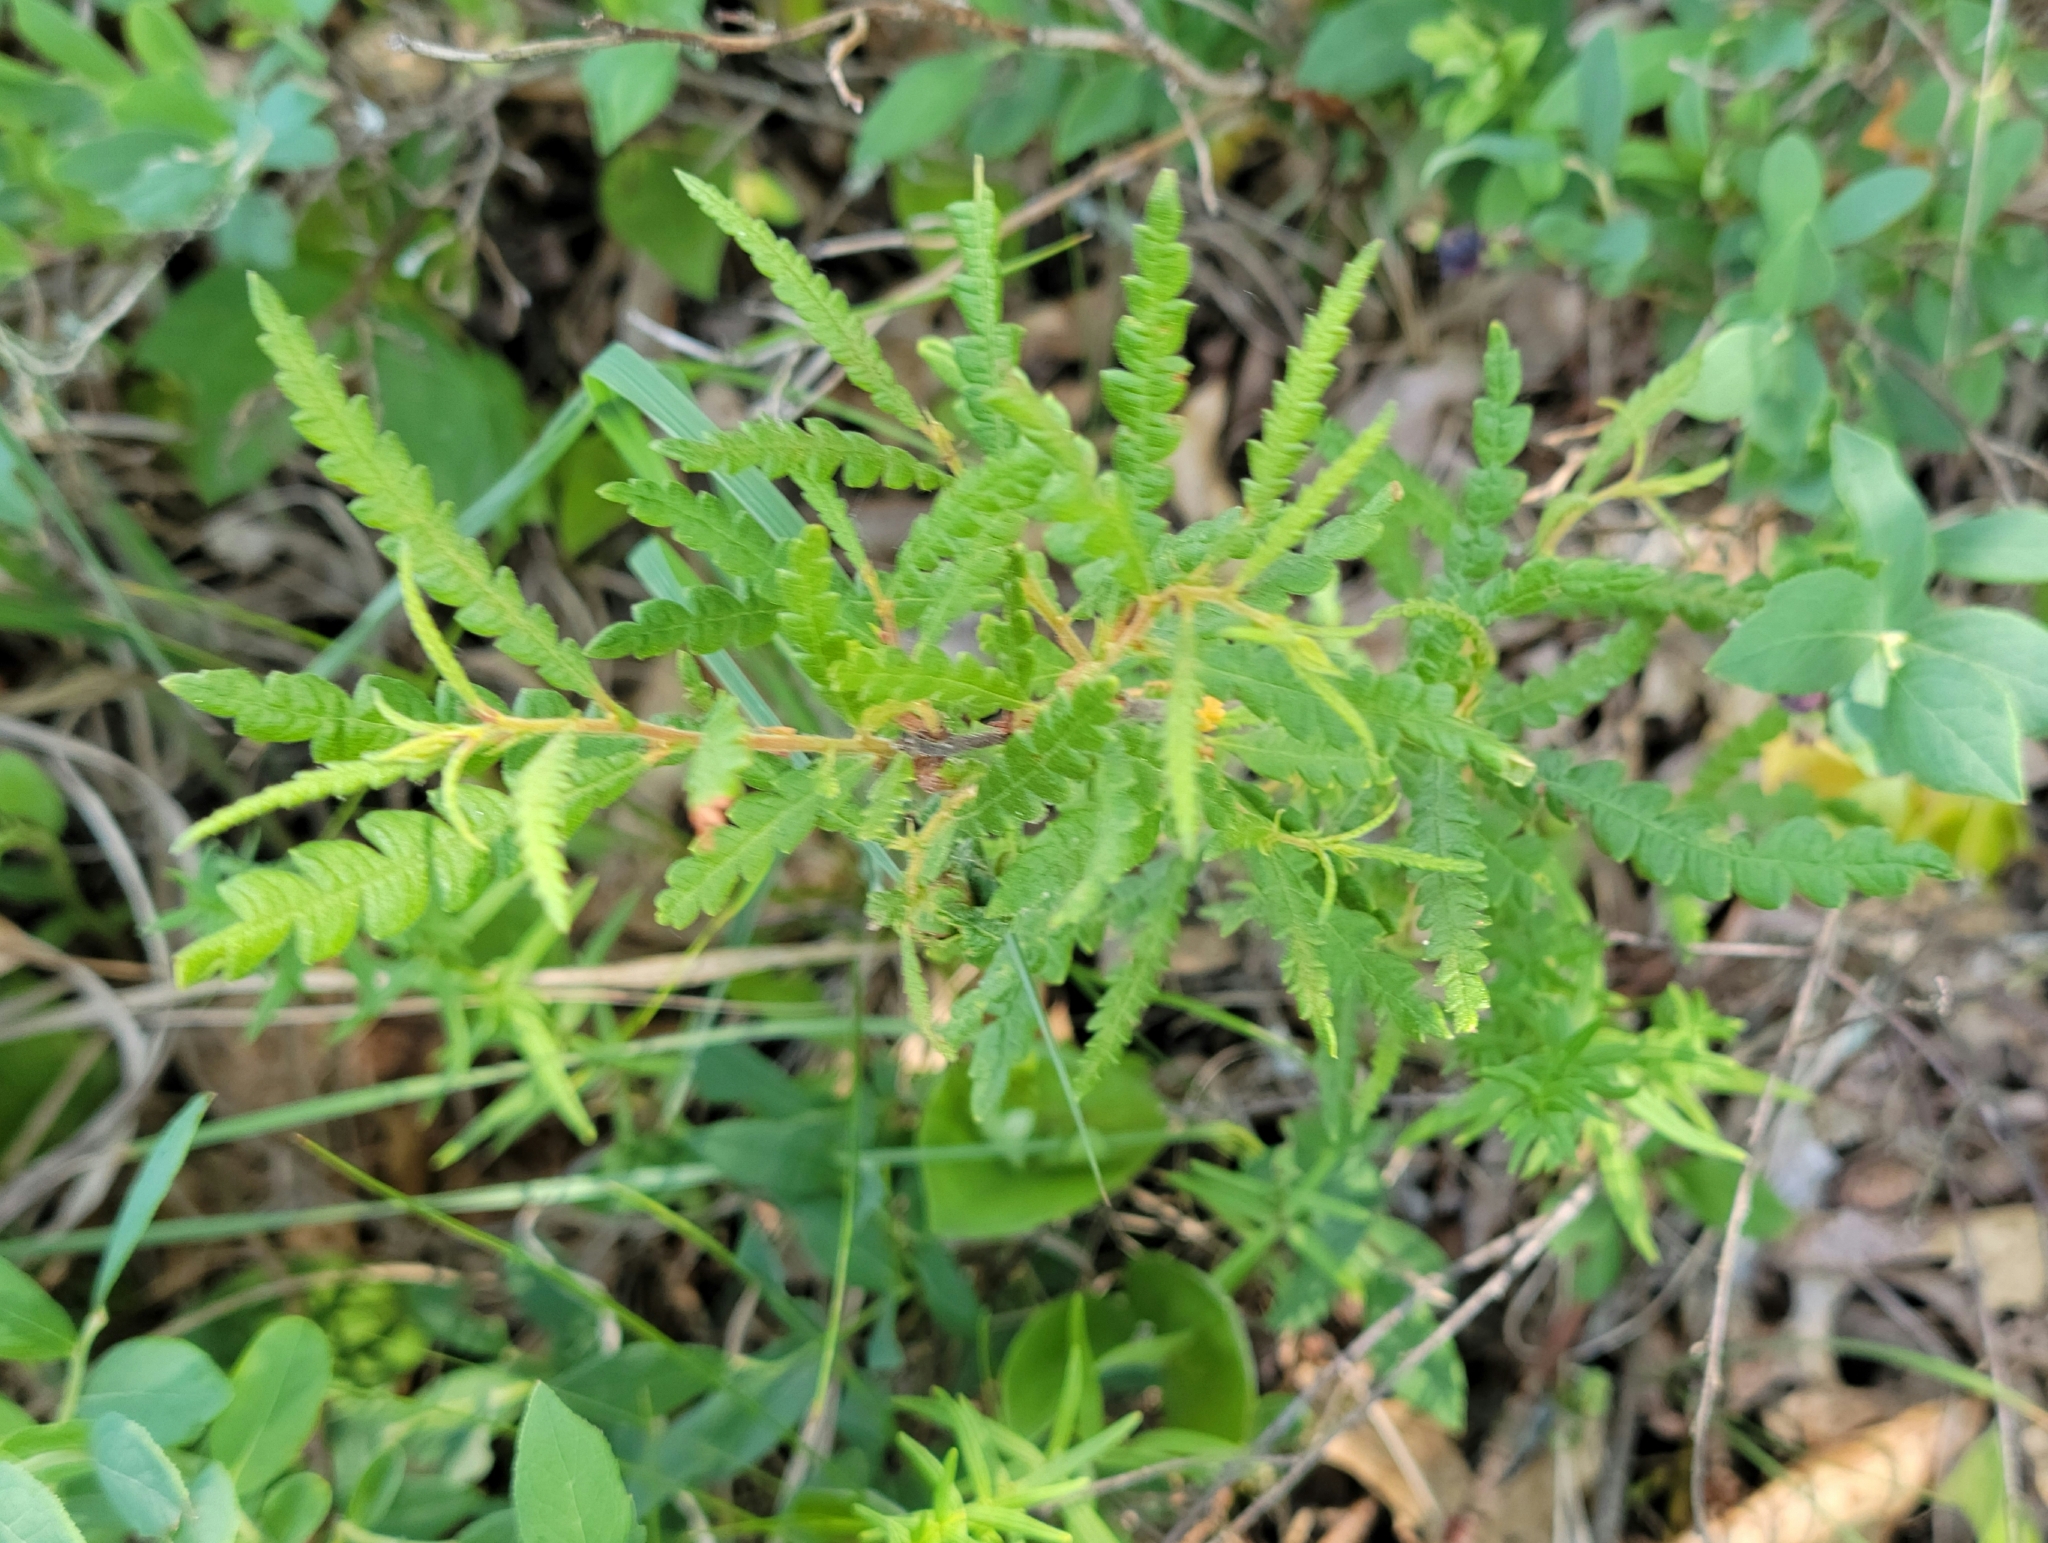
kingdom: Plantae
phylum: Tracheophyta
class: Magnoliopsida
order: Fagales
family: Myricaceae
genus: Comptonia
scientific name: Comptonia peregrina
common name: Sweet-fern
